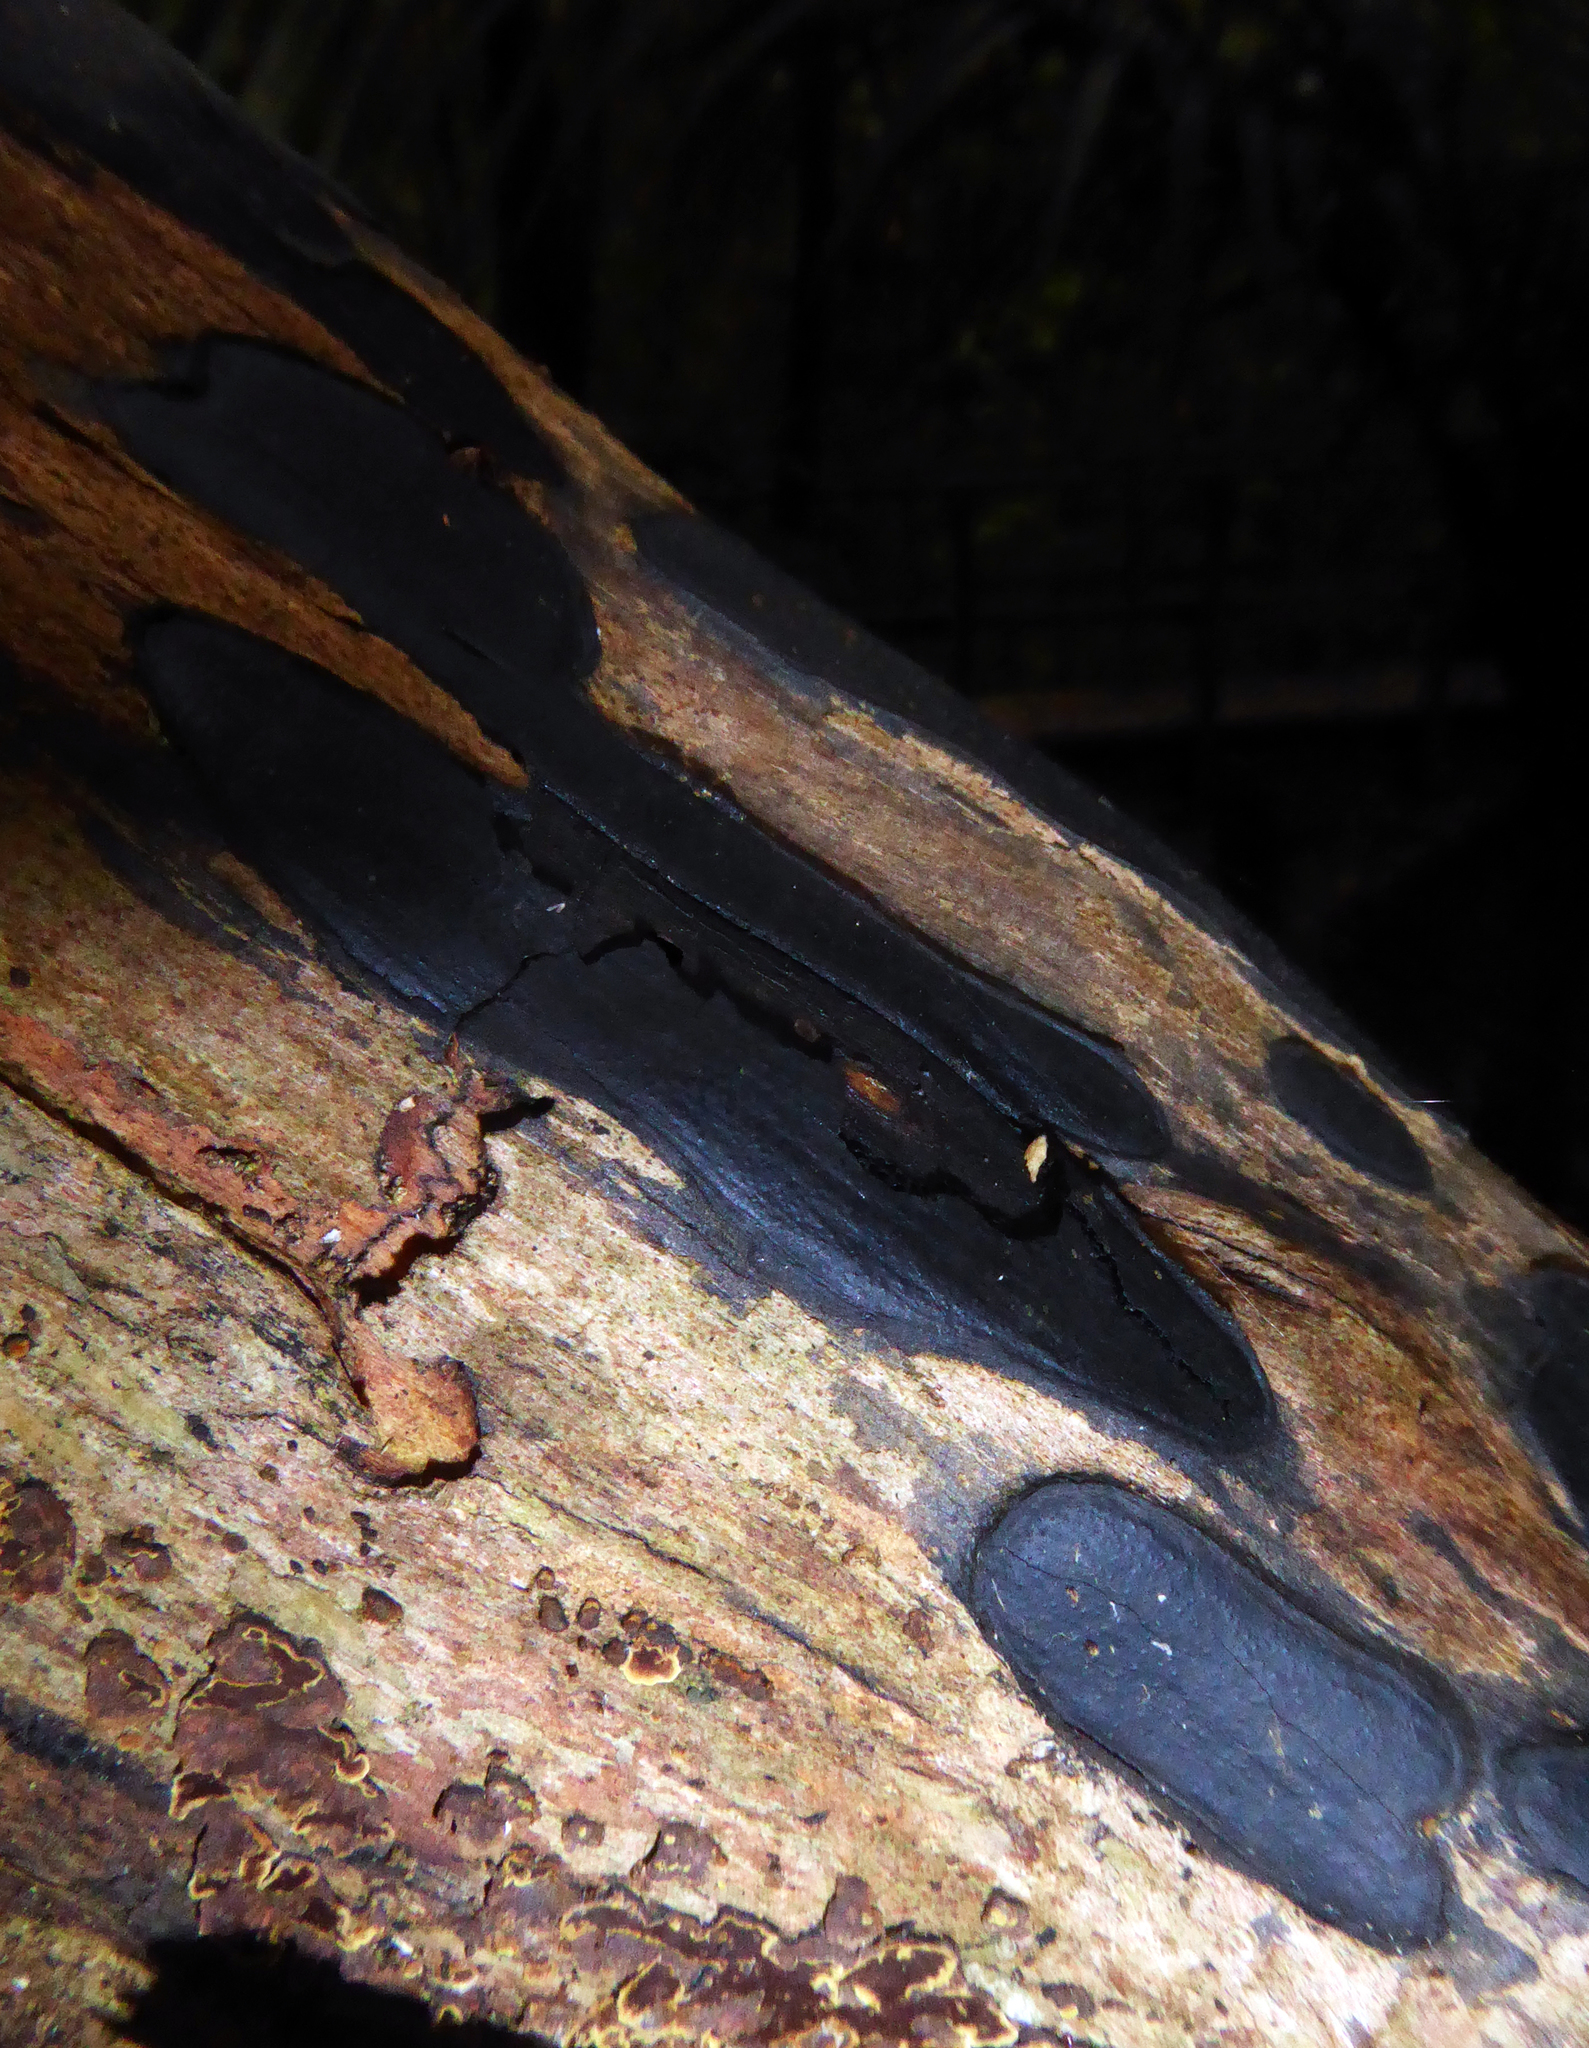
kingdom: Fungi
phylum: Ascomycota
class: Sordariomycetes
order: Xylariales
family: Graphostromataceae
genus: Biscogniauxia
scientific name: Biscogniauxia capnodes
